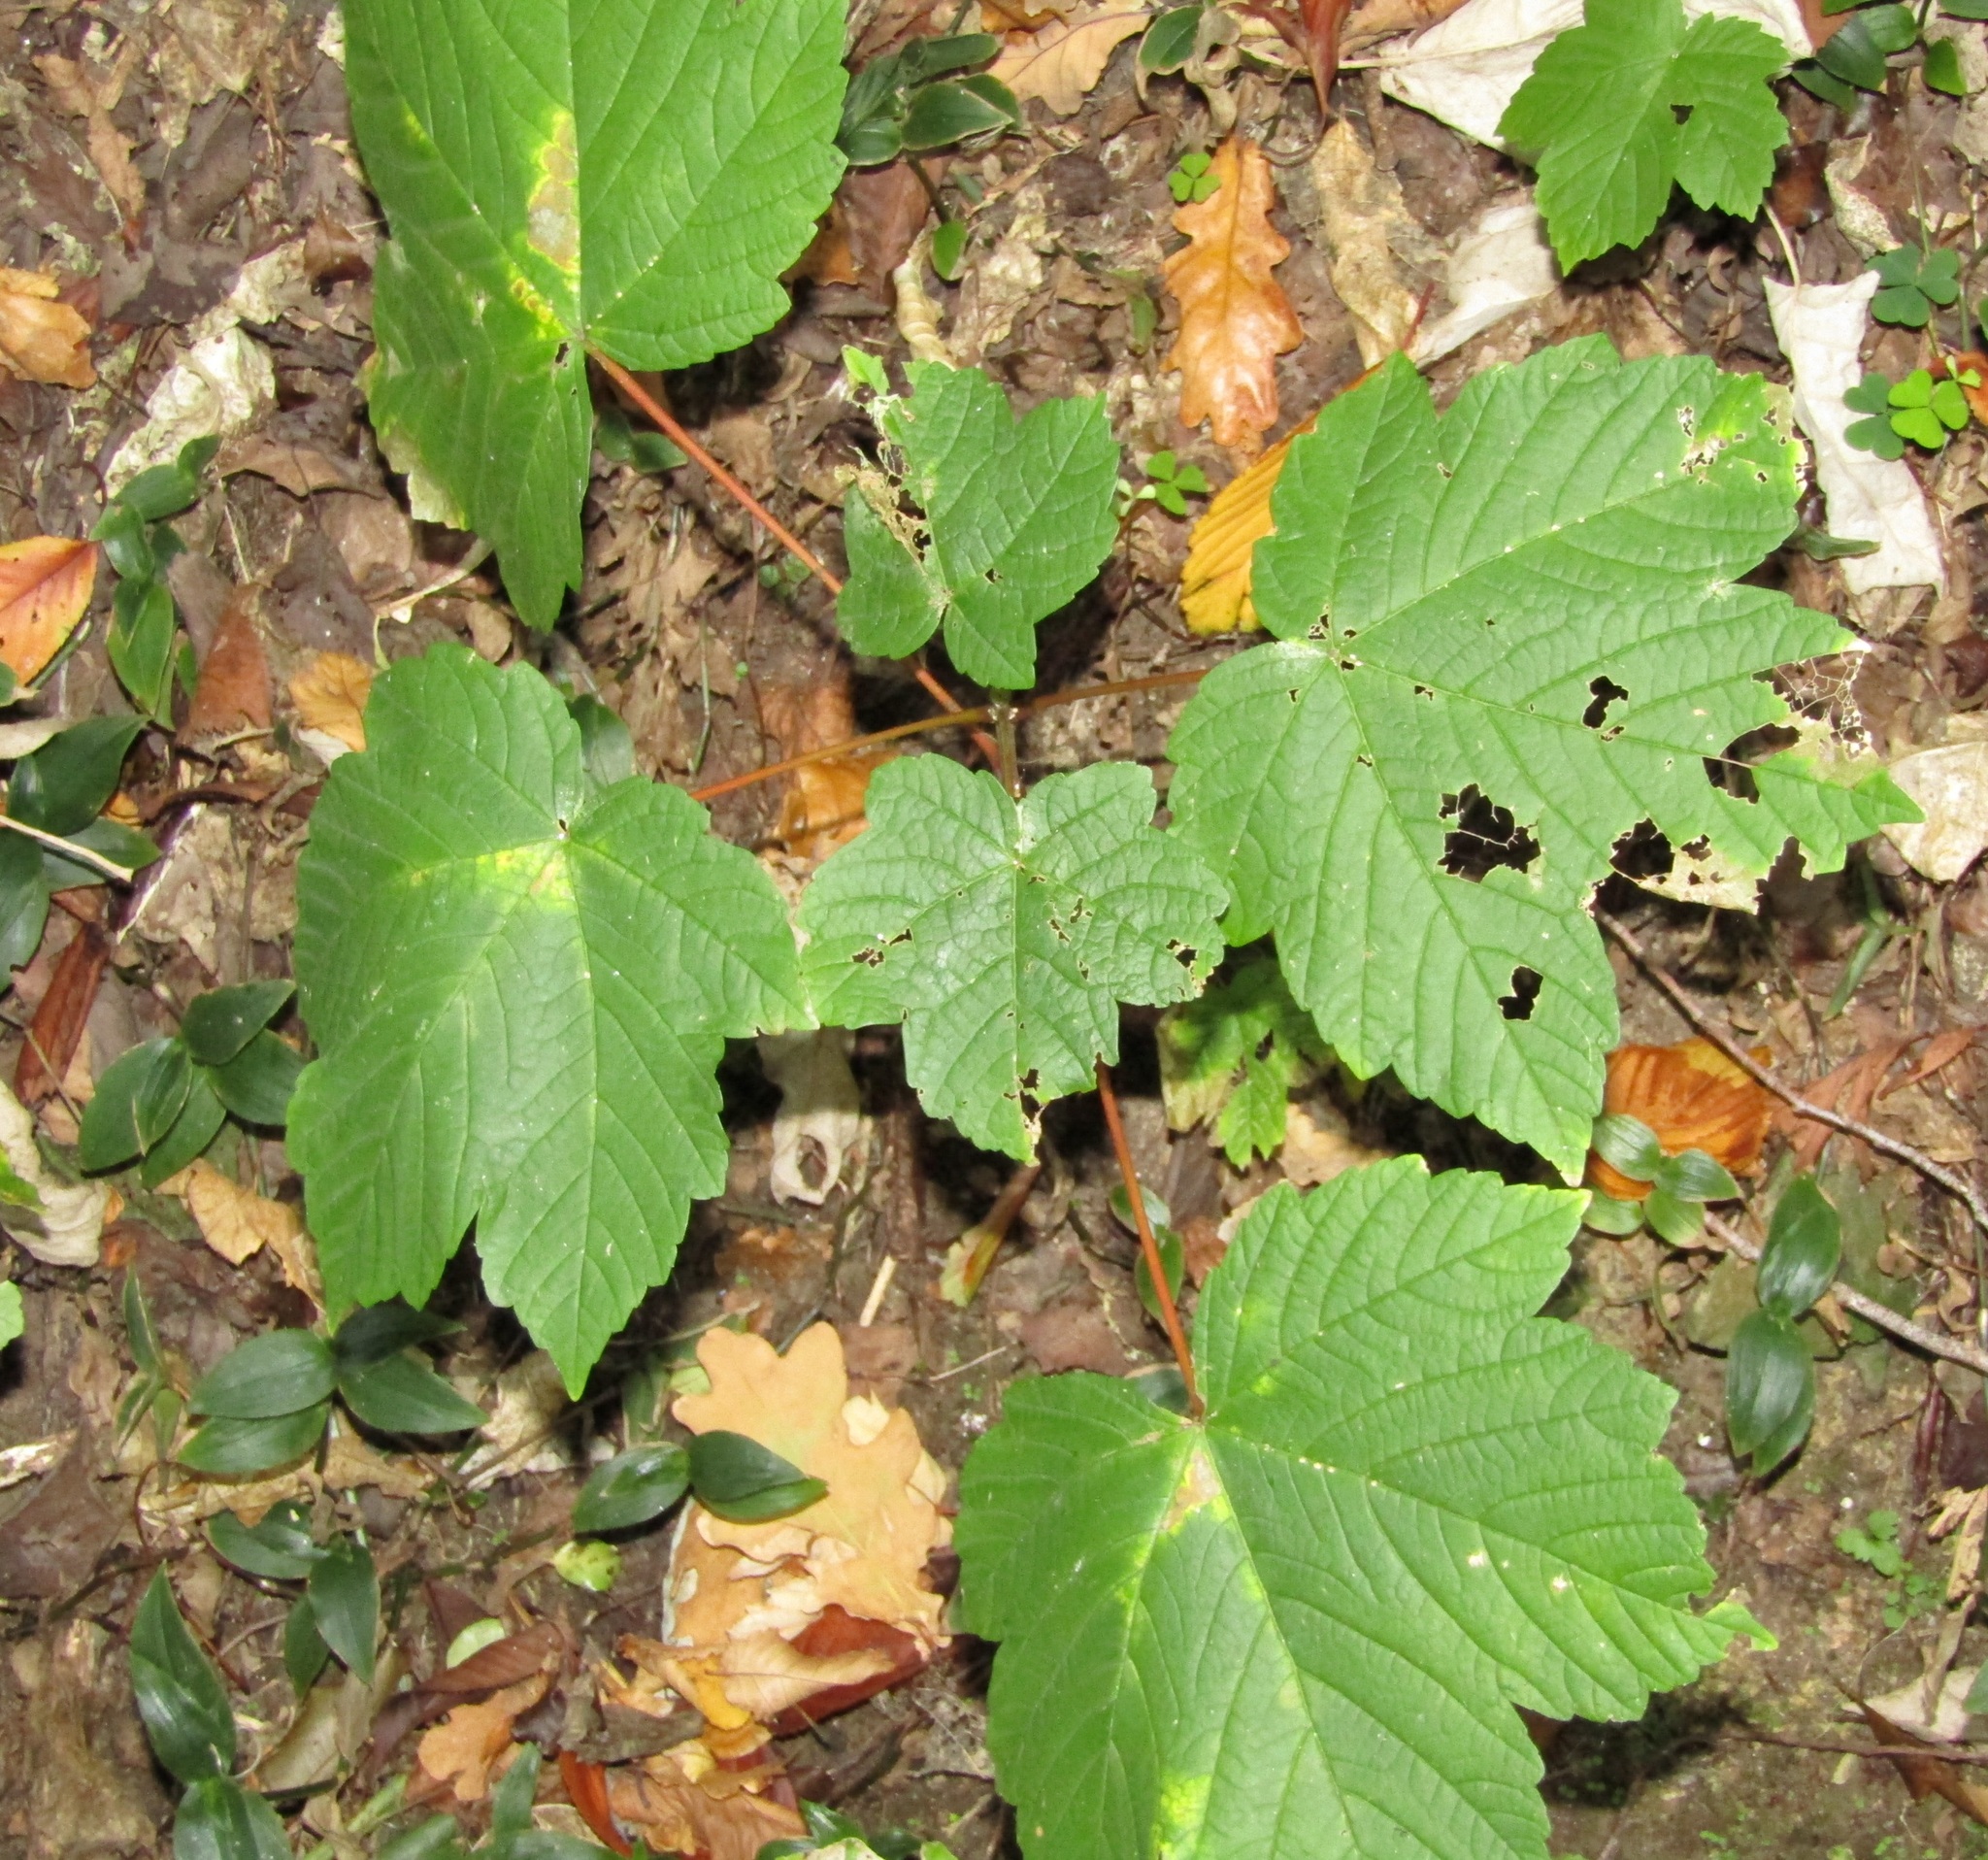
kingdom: Plantae
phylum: Tracheophyta
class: Magnoliopsida
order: Sapindales
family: Sapindaceae
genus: Acer
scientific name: Acer pseudoplatanus
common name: Sycamore
